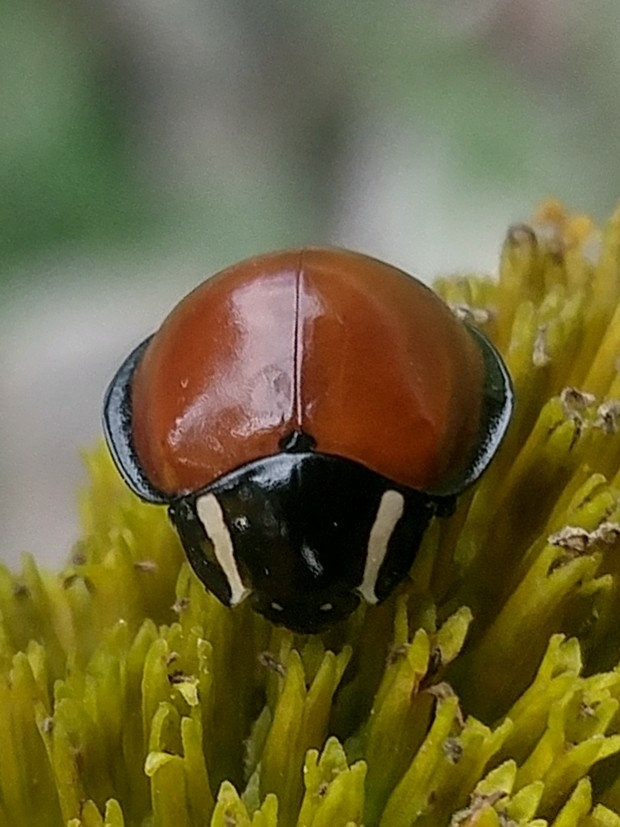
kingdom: Animalia
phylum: Arthropoda
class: Insecta
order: Coleoptera
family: Coccinellidae
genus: Anatis
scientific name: Anatis lecontei
